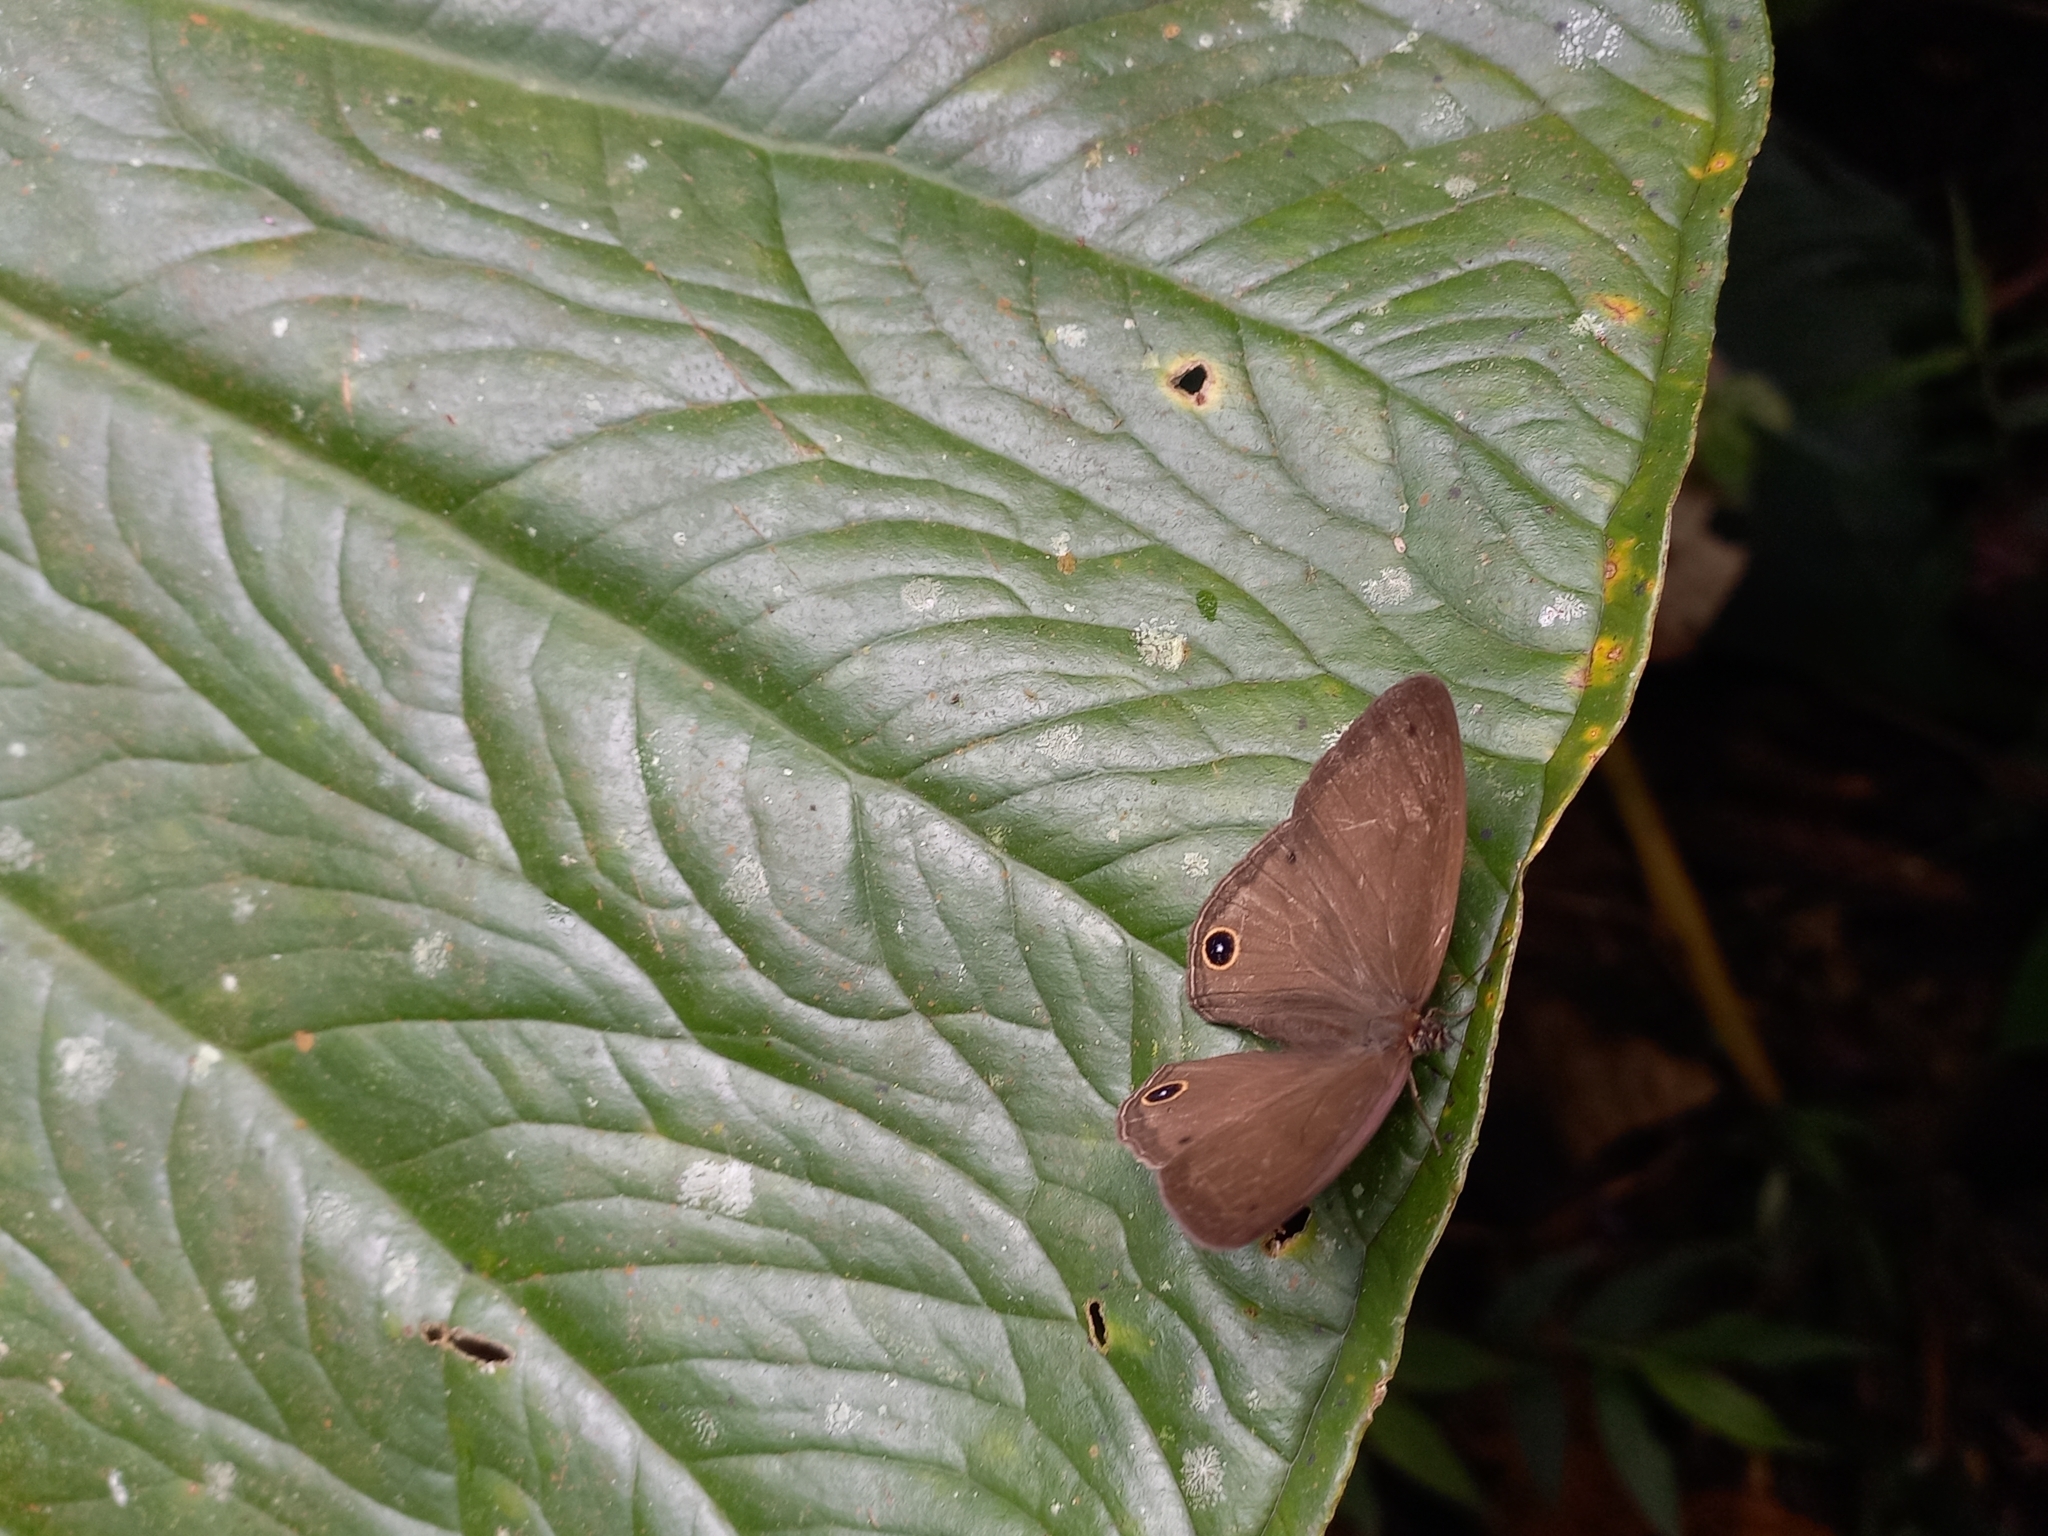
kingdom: Animalia
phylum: Arthropoda
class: Insecta
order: Lepidoptera
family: Nymphalidae
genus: Euptychoides
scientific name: Euptychoides saturnus
